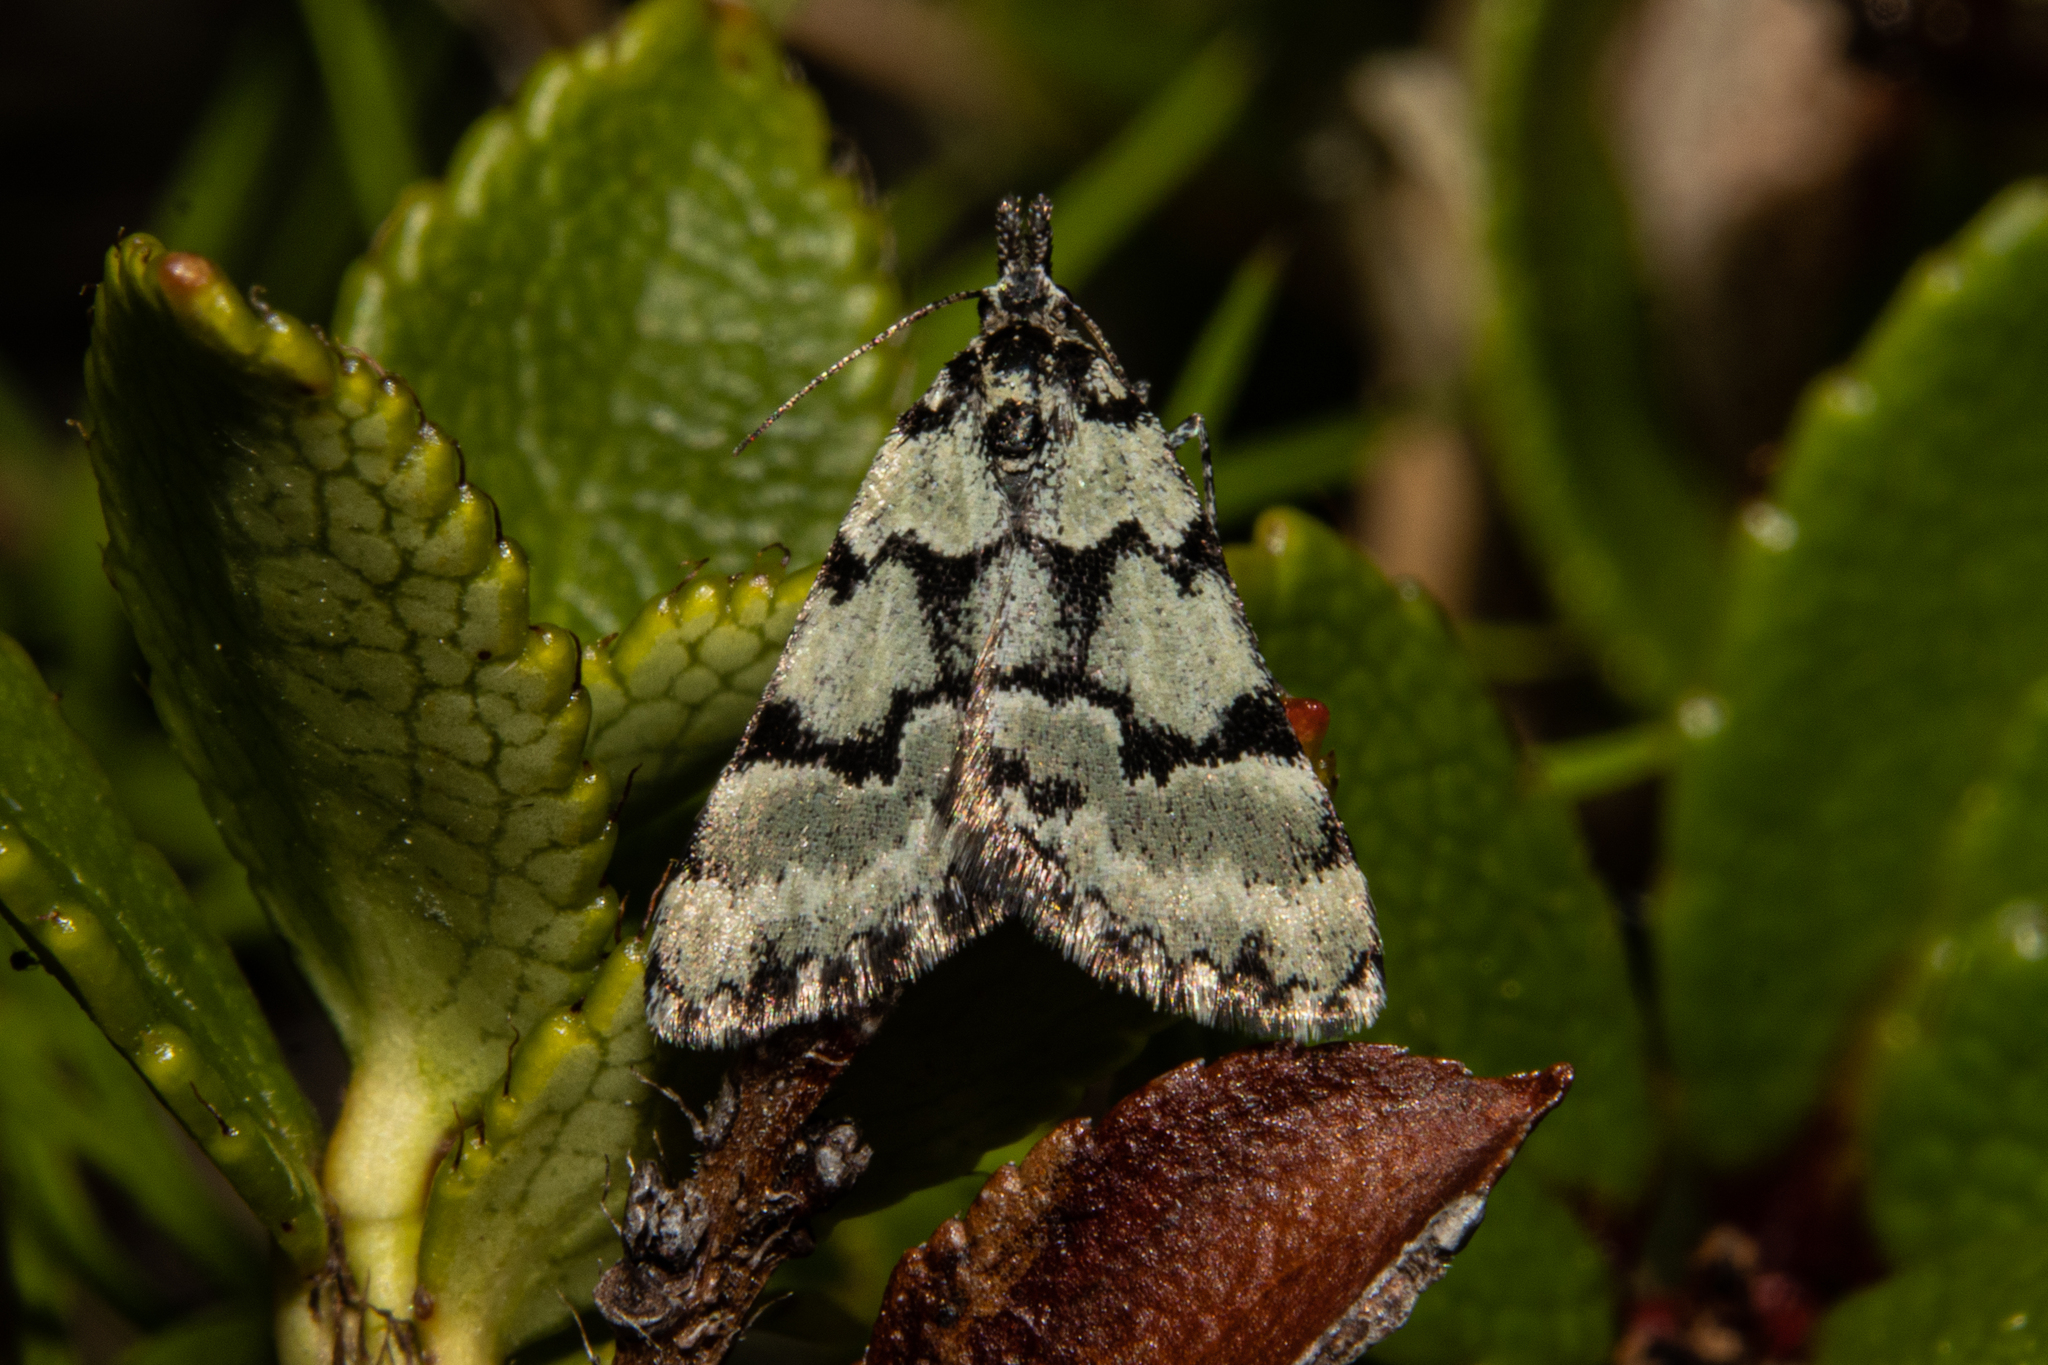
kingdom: Animalia
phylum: Arthropoda
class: Insecta
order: Lepidoptera
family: Geometridae
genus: Dichromodes
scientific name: Dichromodes gypsotis
